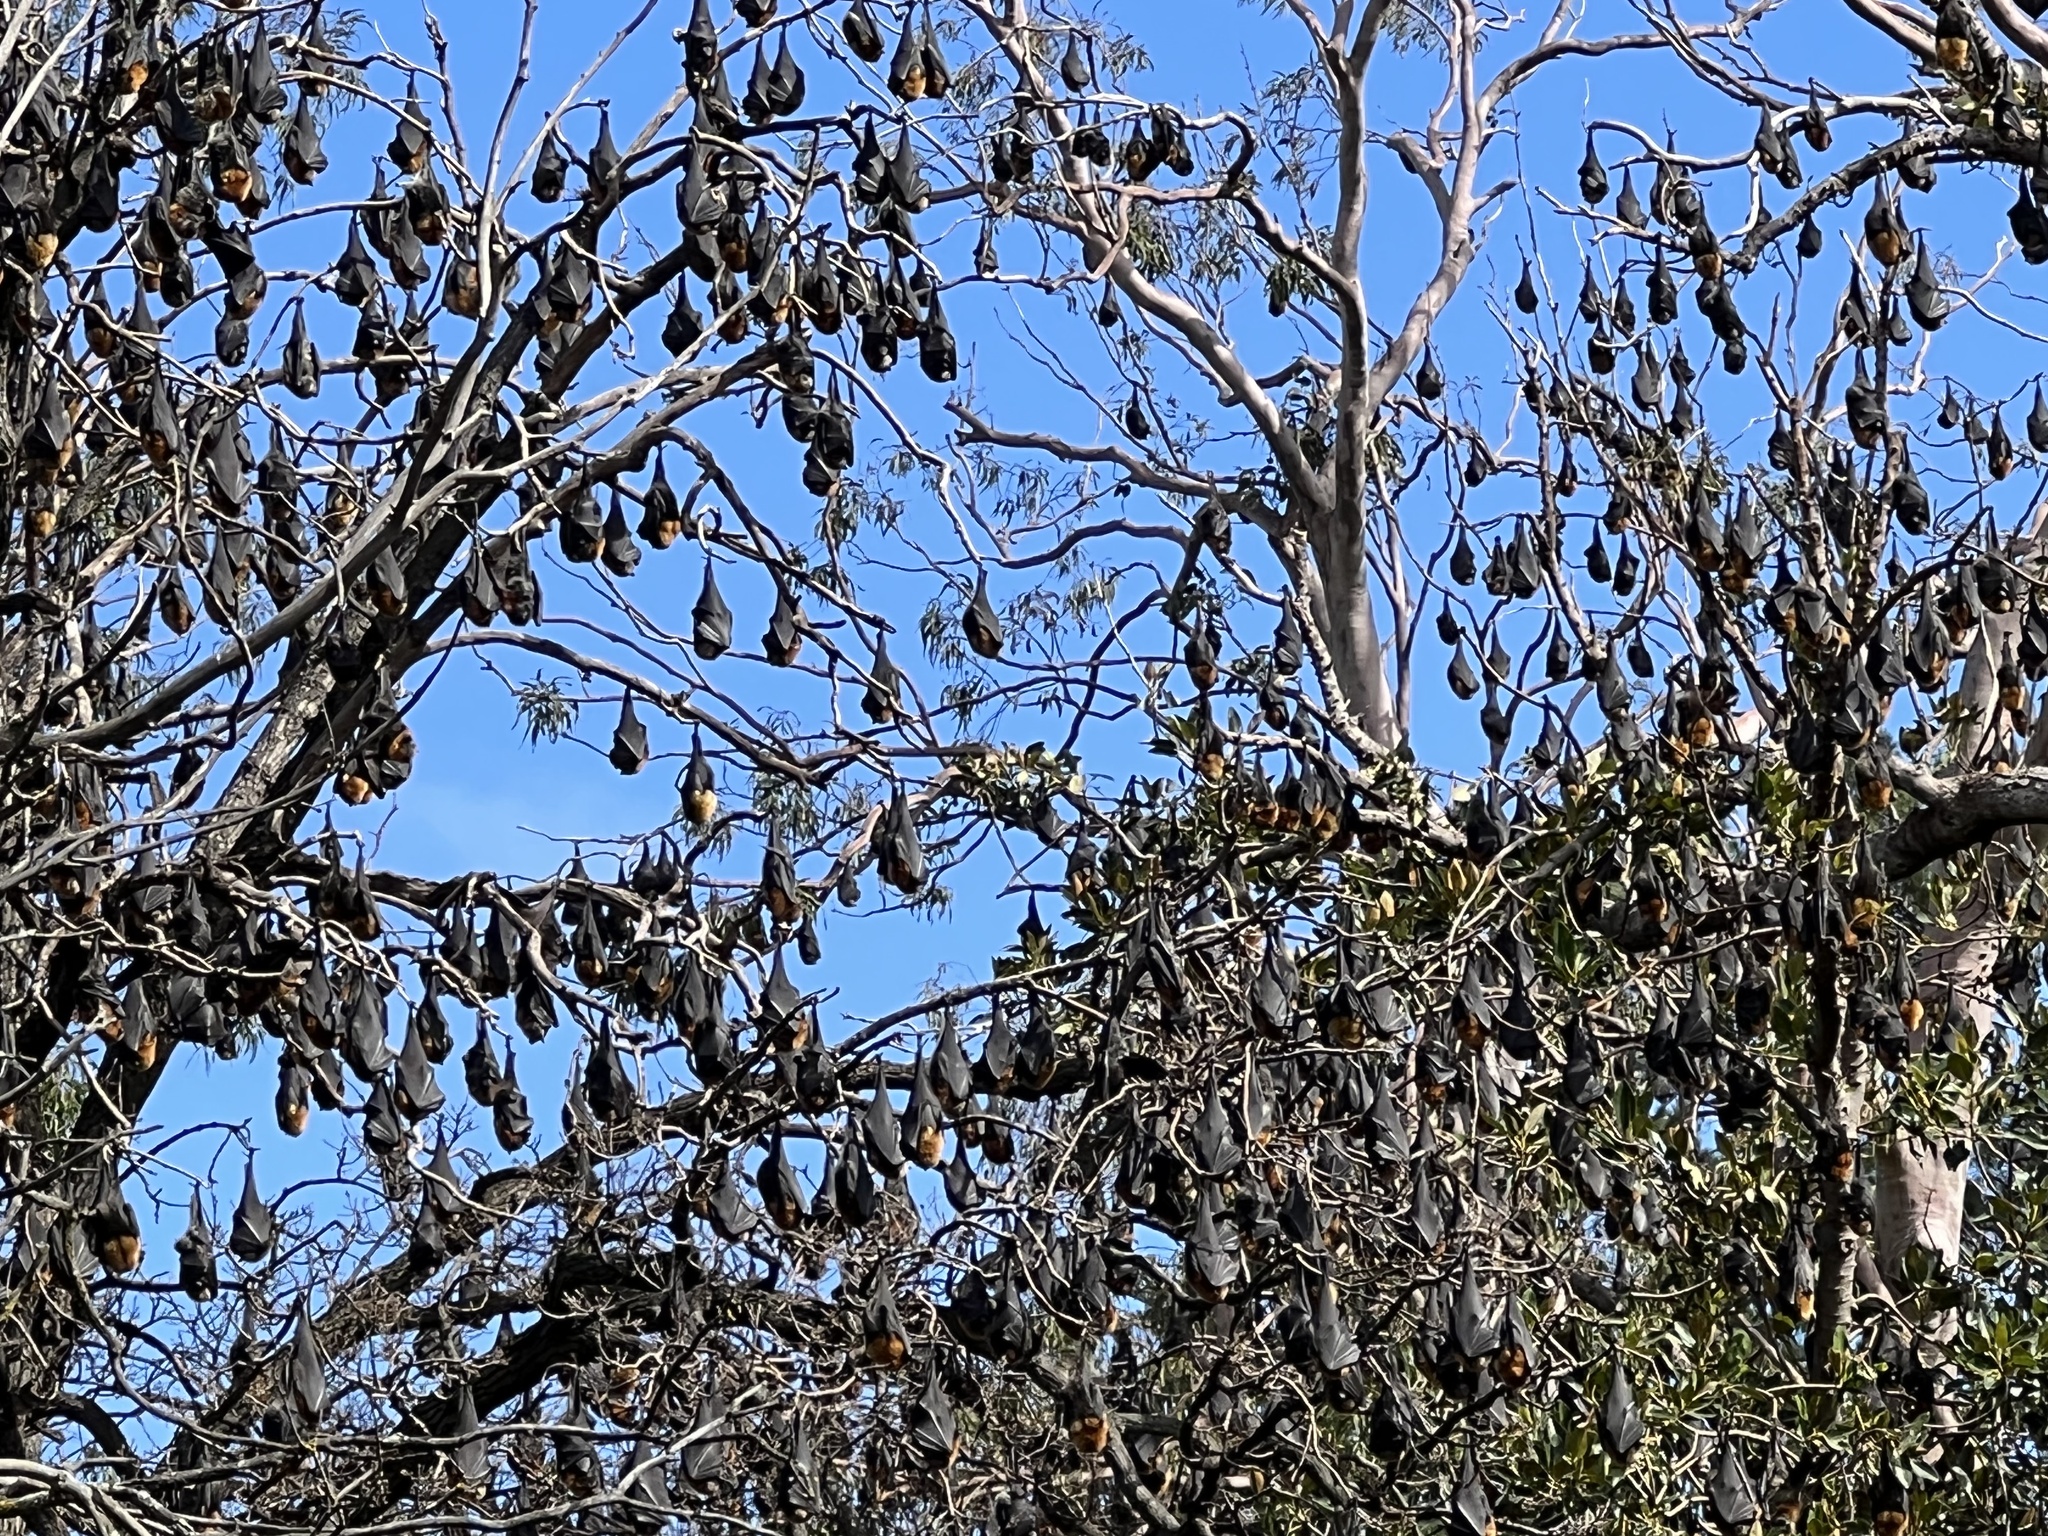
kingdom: Animalia
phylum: Chordata
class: Mammalia
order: Chiroptera
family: Pteropodidae
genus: Pteropus
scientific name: Pteropus poliocephalus
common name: Gray-headed flying fox
